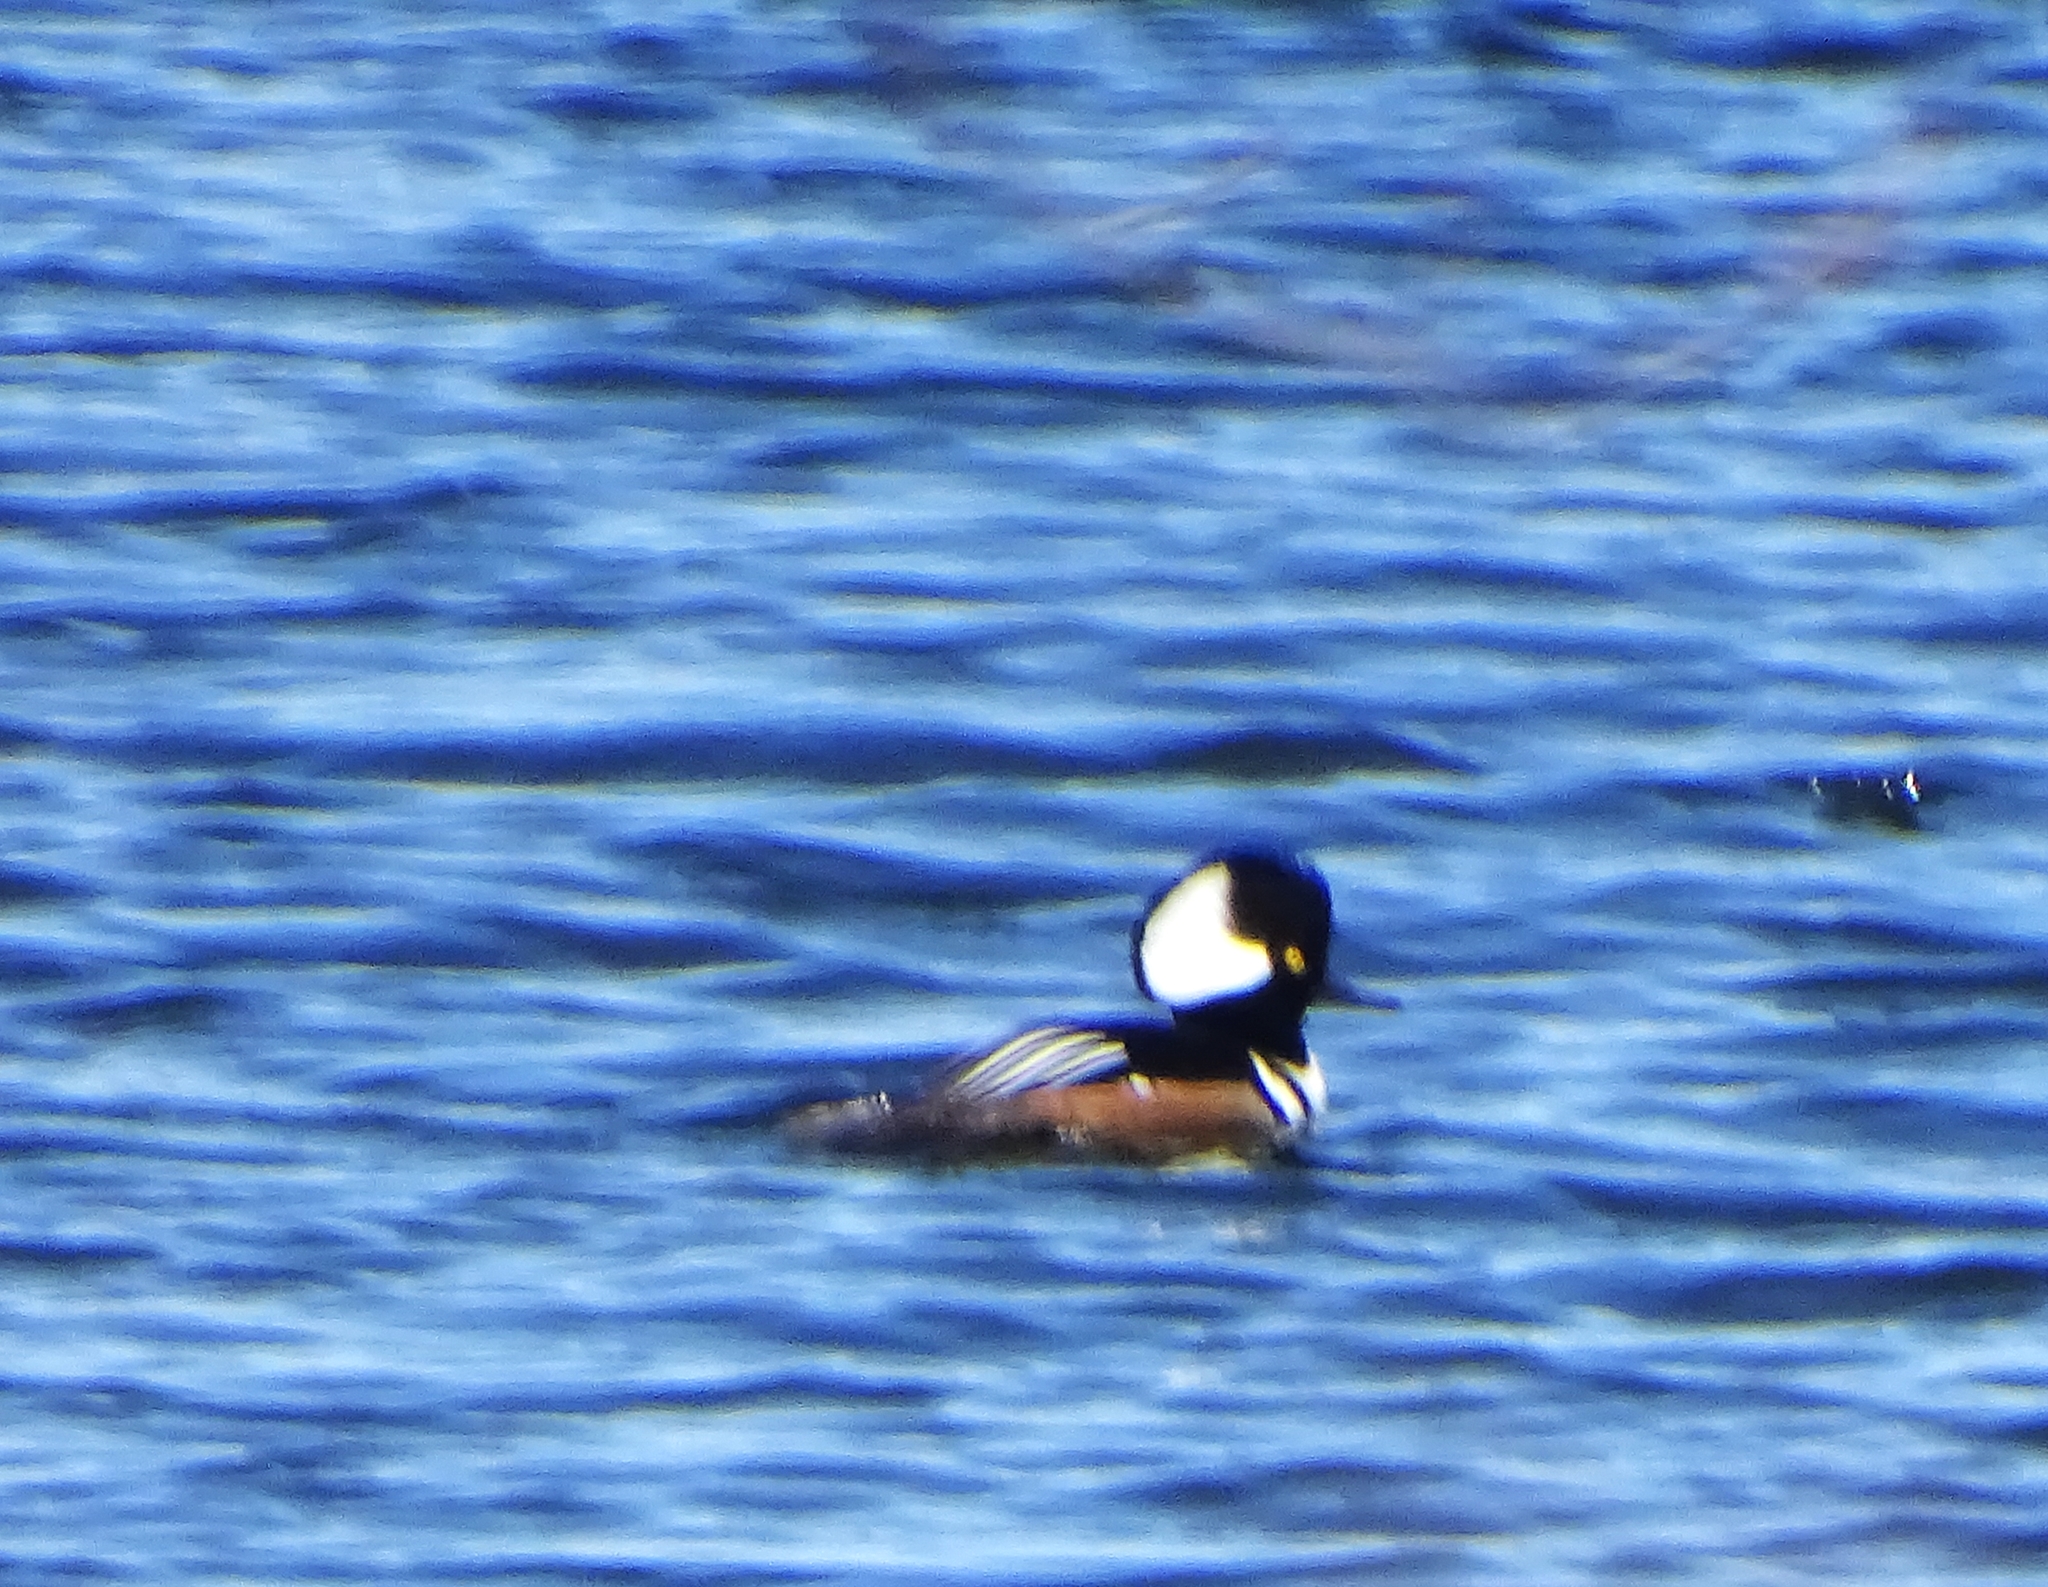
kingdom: Animalia
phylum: Chordata
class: Aves
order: Anseriformes
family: Anatidae
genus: Lophodytes
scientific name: Lophodytes cucullatus
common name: Hooded merganser
